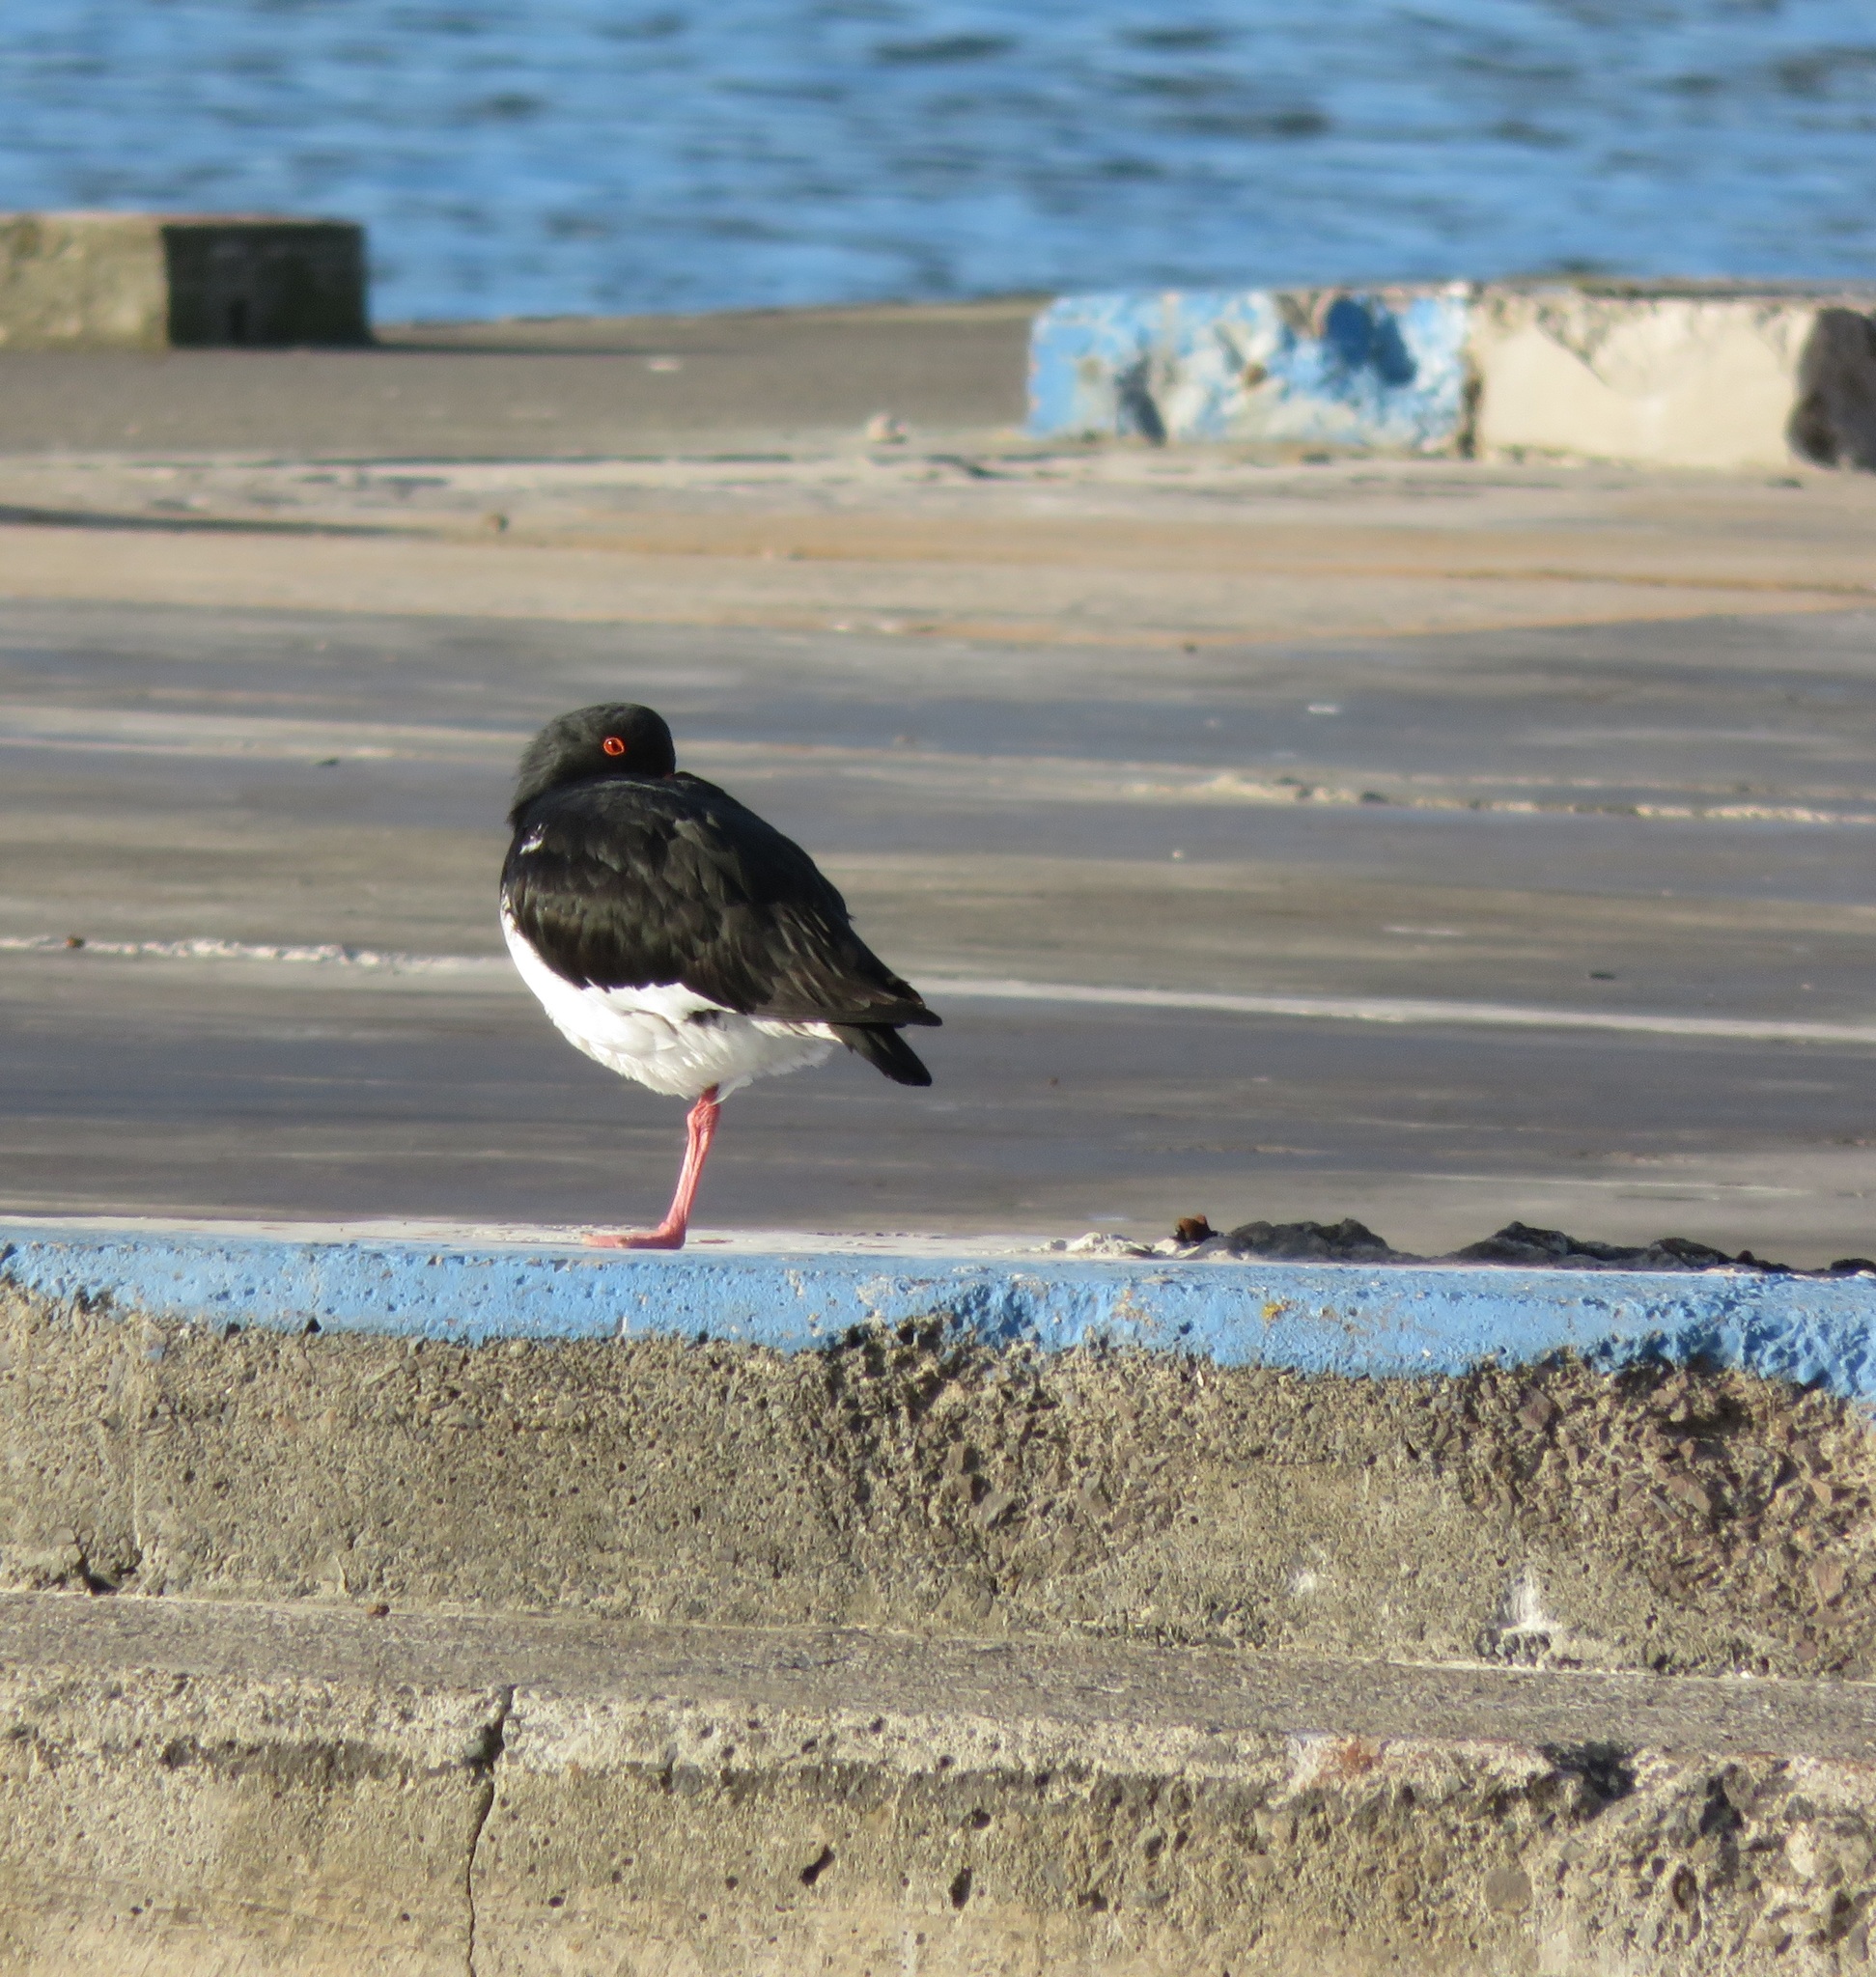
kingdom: Animalia
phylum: Chordata
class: Aves
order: Charadriiformes
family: Haematopodidae
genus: Haematopus
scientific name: Haematopus unicolor
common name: Variable oystercatcher
